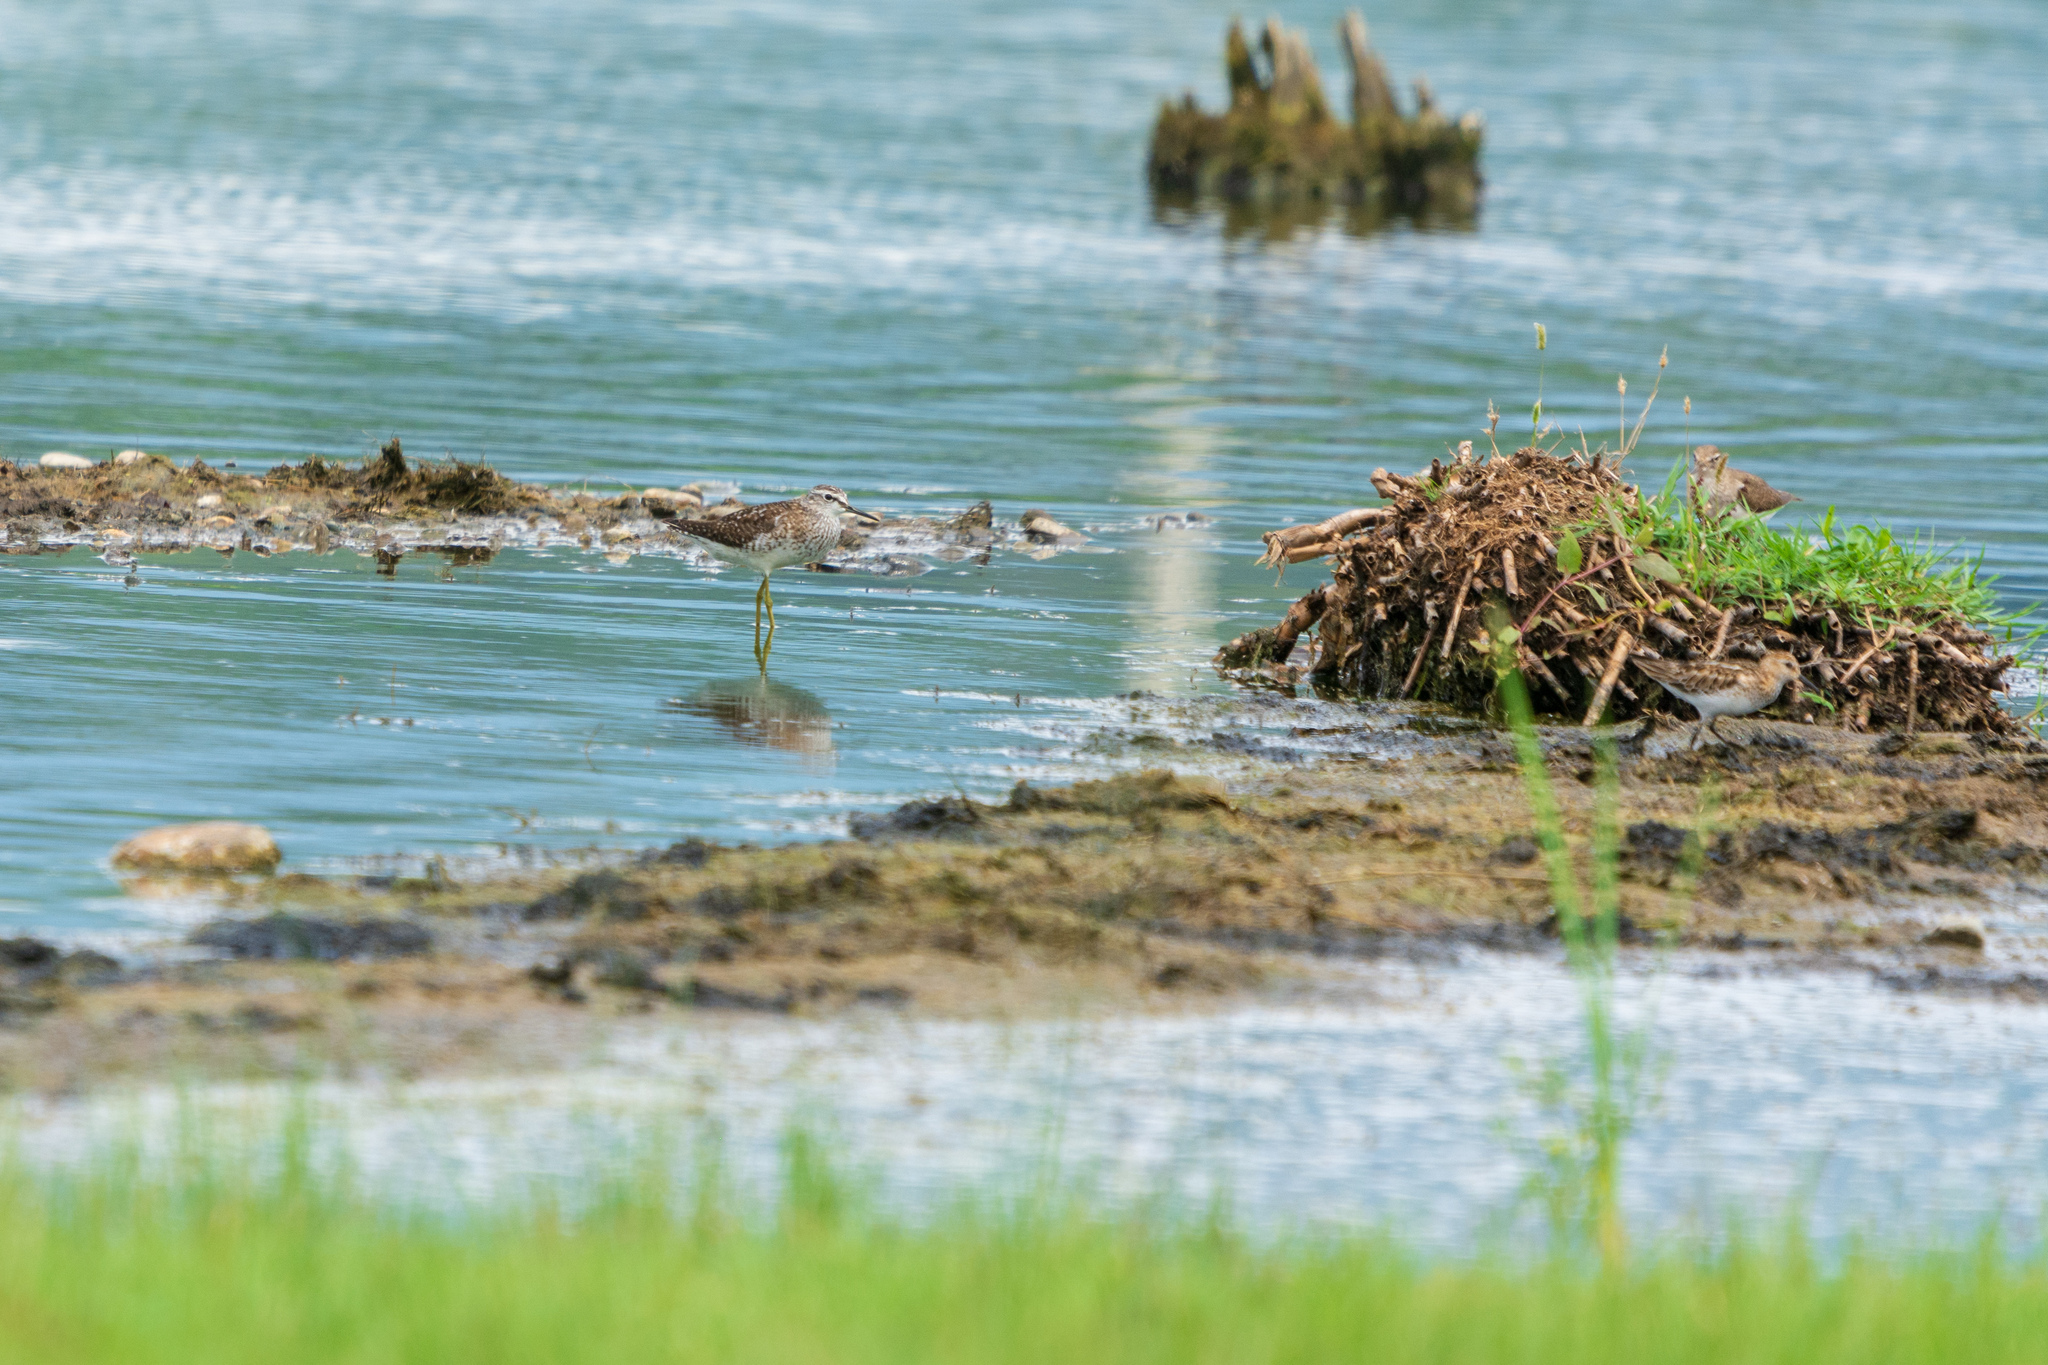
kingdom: Animalia
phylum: Chordata
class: Aves
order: Charadriiformes
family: Scolopacidae
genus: Tringa
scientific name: Tringa glareola
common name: Wood sandpiper
